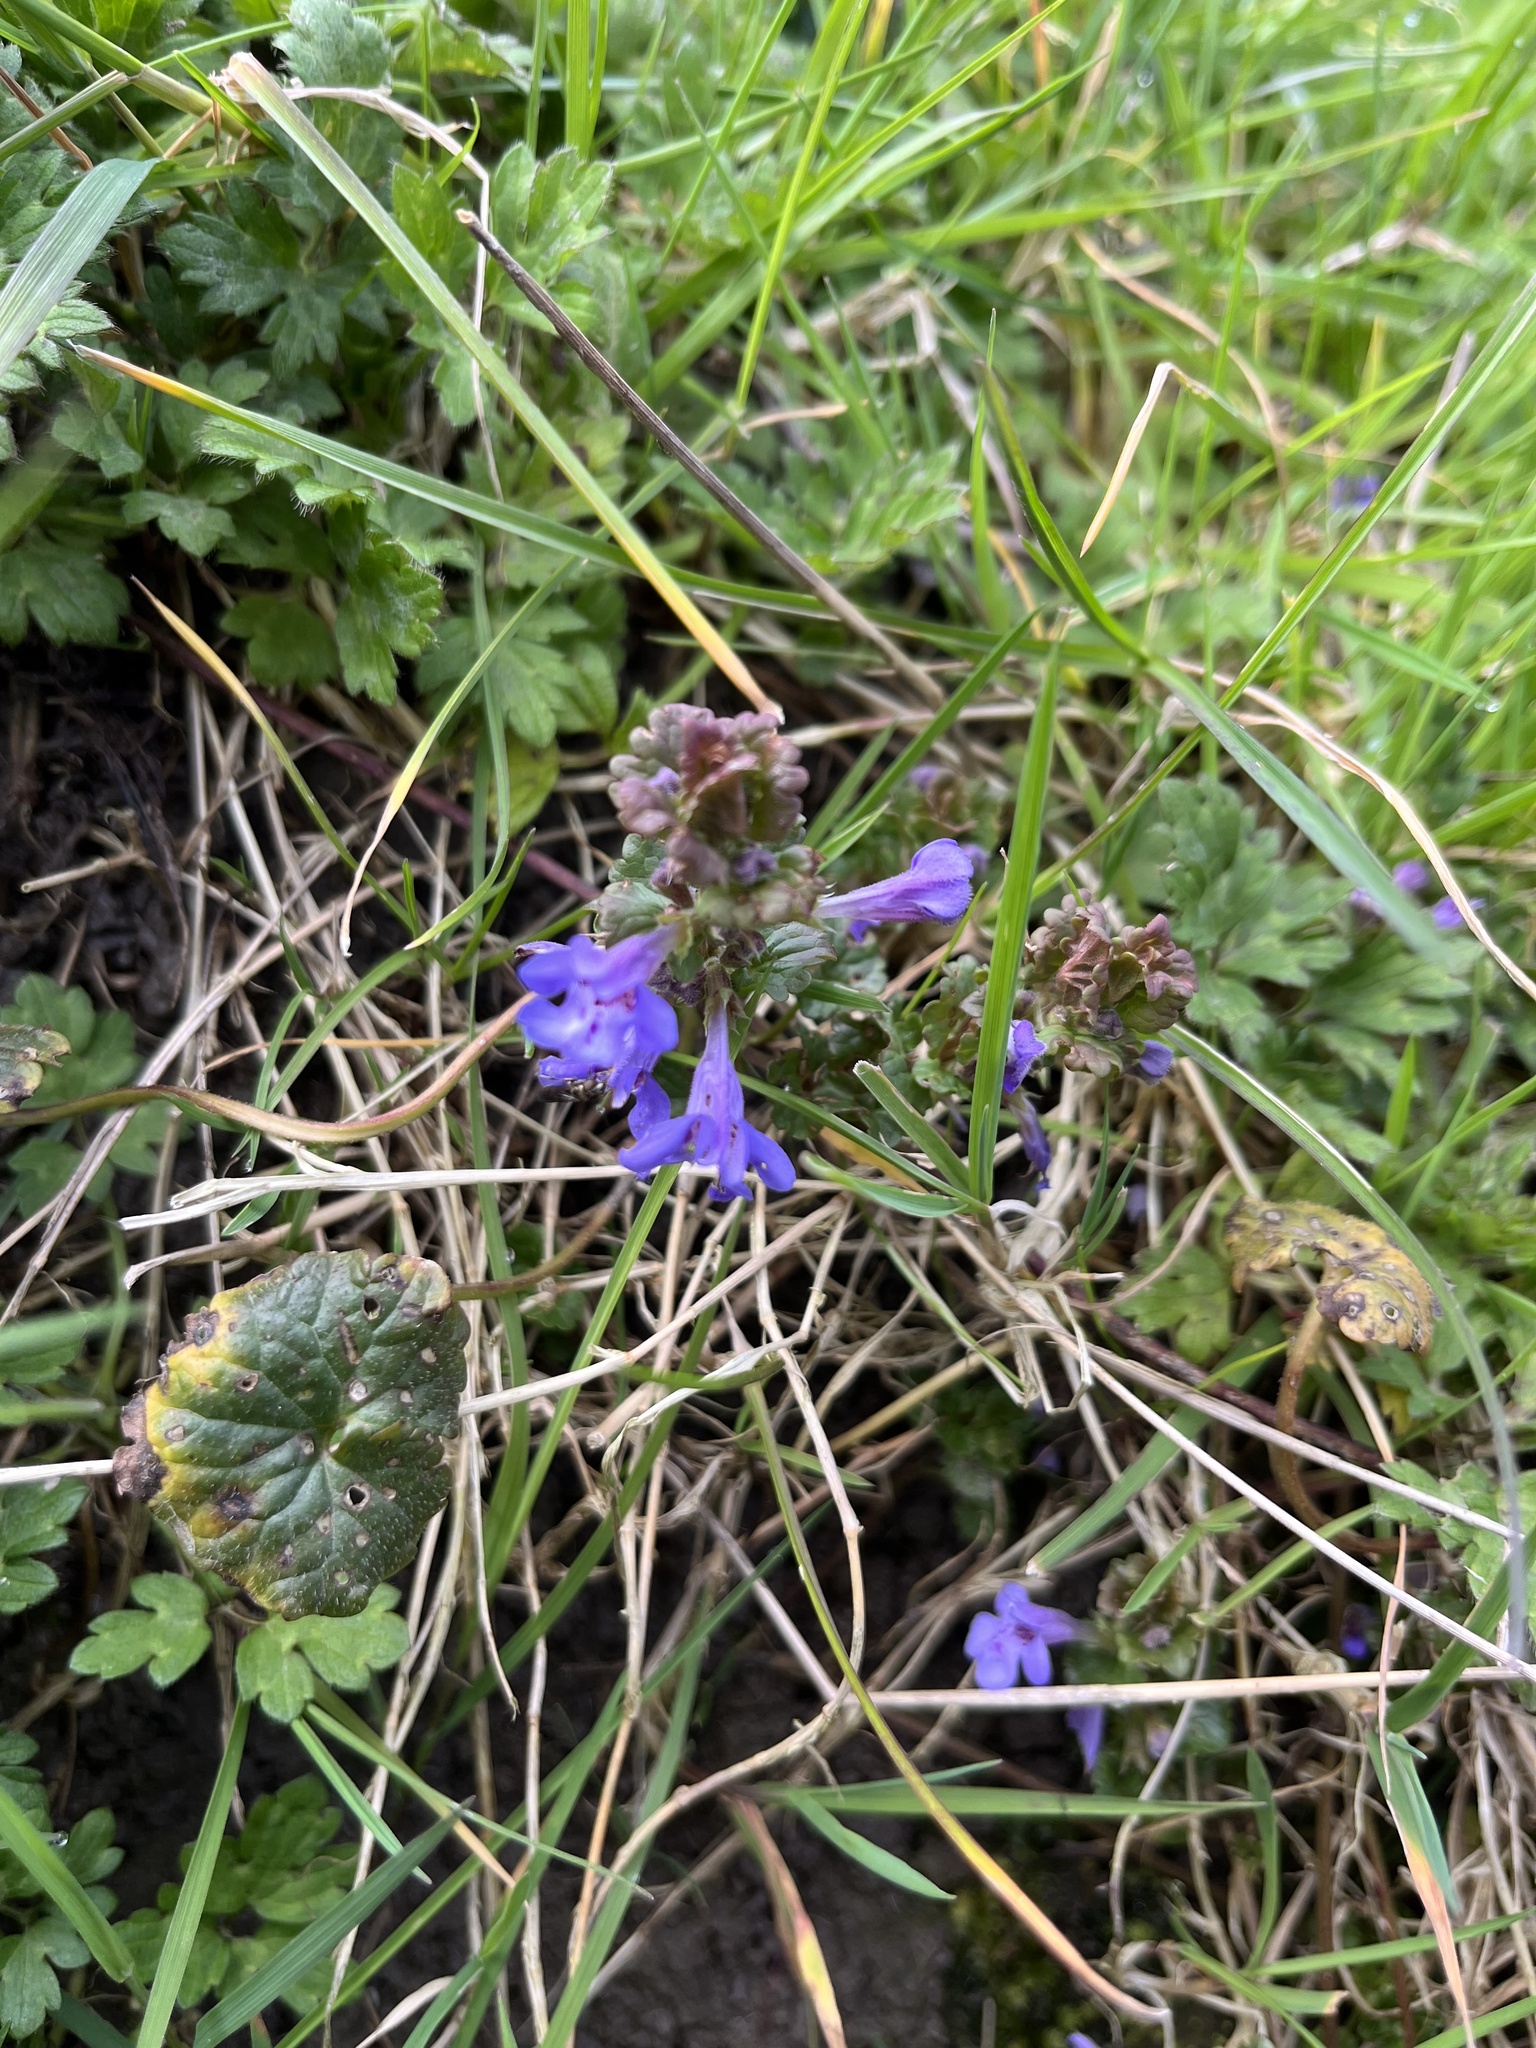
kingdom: Plantae
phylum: Tracheophyta
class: Magnoliopsida
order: Lamiales
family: Lamiaceae
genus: Glechoma
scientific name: Glechoma hederacea
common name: Ground ivy
